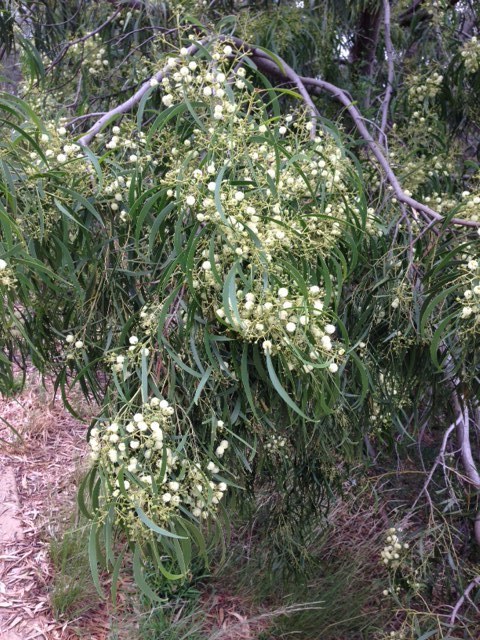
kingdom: Plantae
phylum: Tracheophyta
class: Magnoliopsida
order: Fabales
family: Fabaceae
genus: Acacia
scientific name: Acacia implexa
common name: Black wattle
